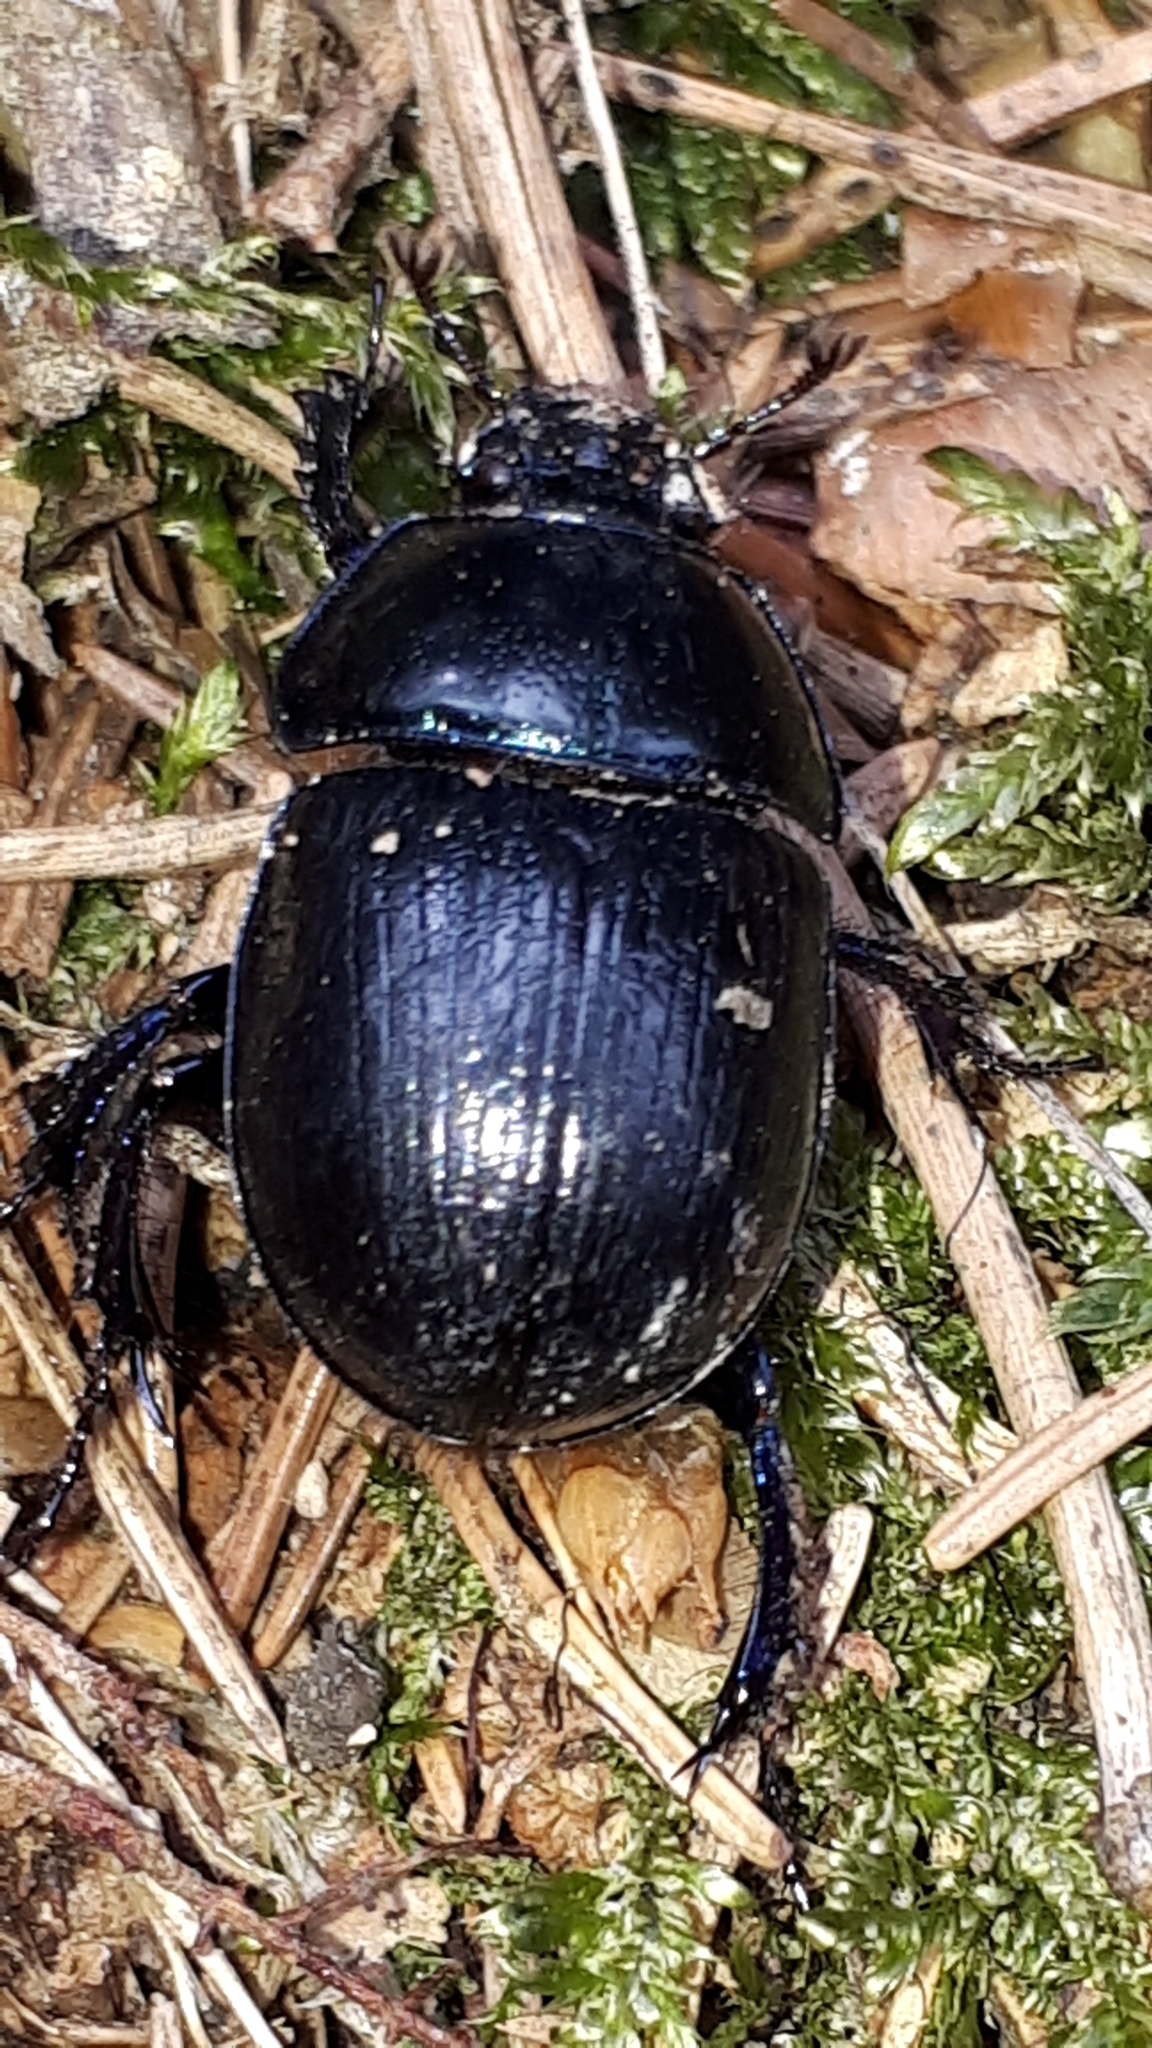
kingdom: Animalia
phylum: Arthropoda
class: Insecta
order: Coleoptera
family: Geotrupidae
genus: Anoplotrupes
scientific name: Anoplotrupes stercorosus
